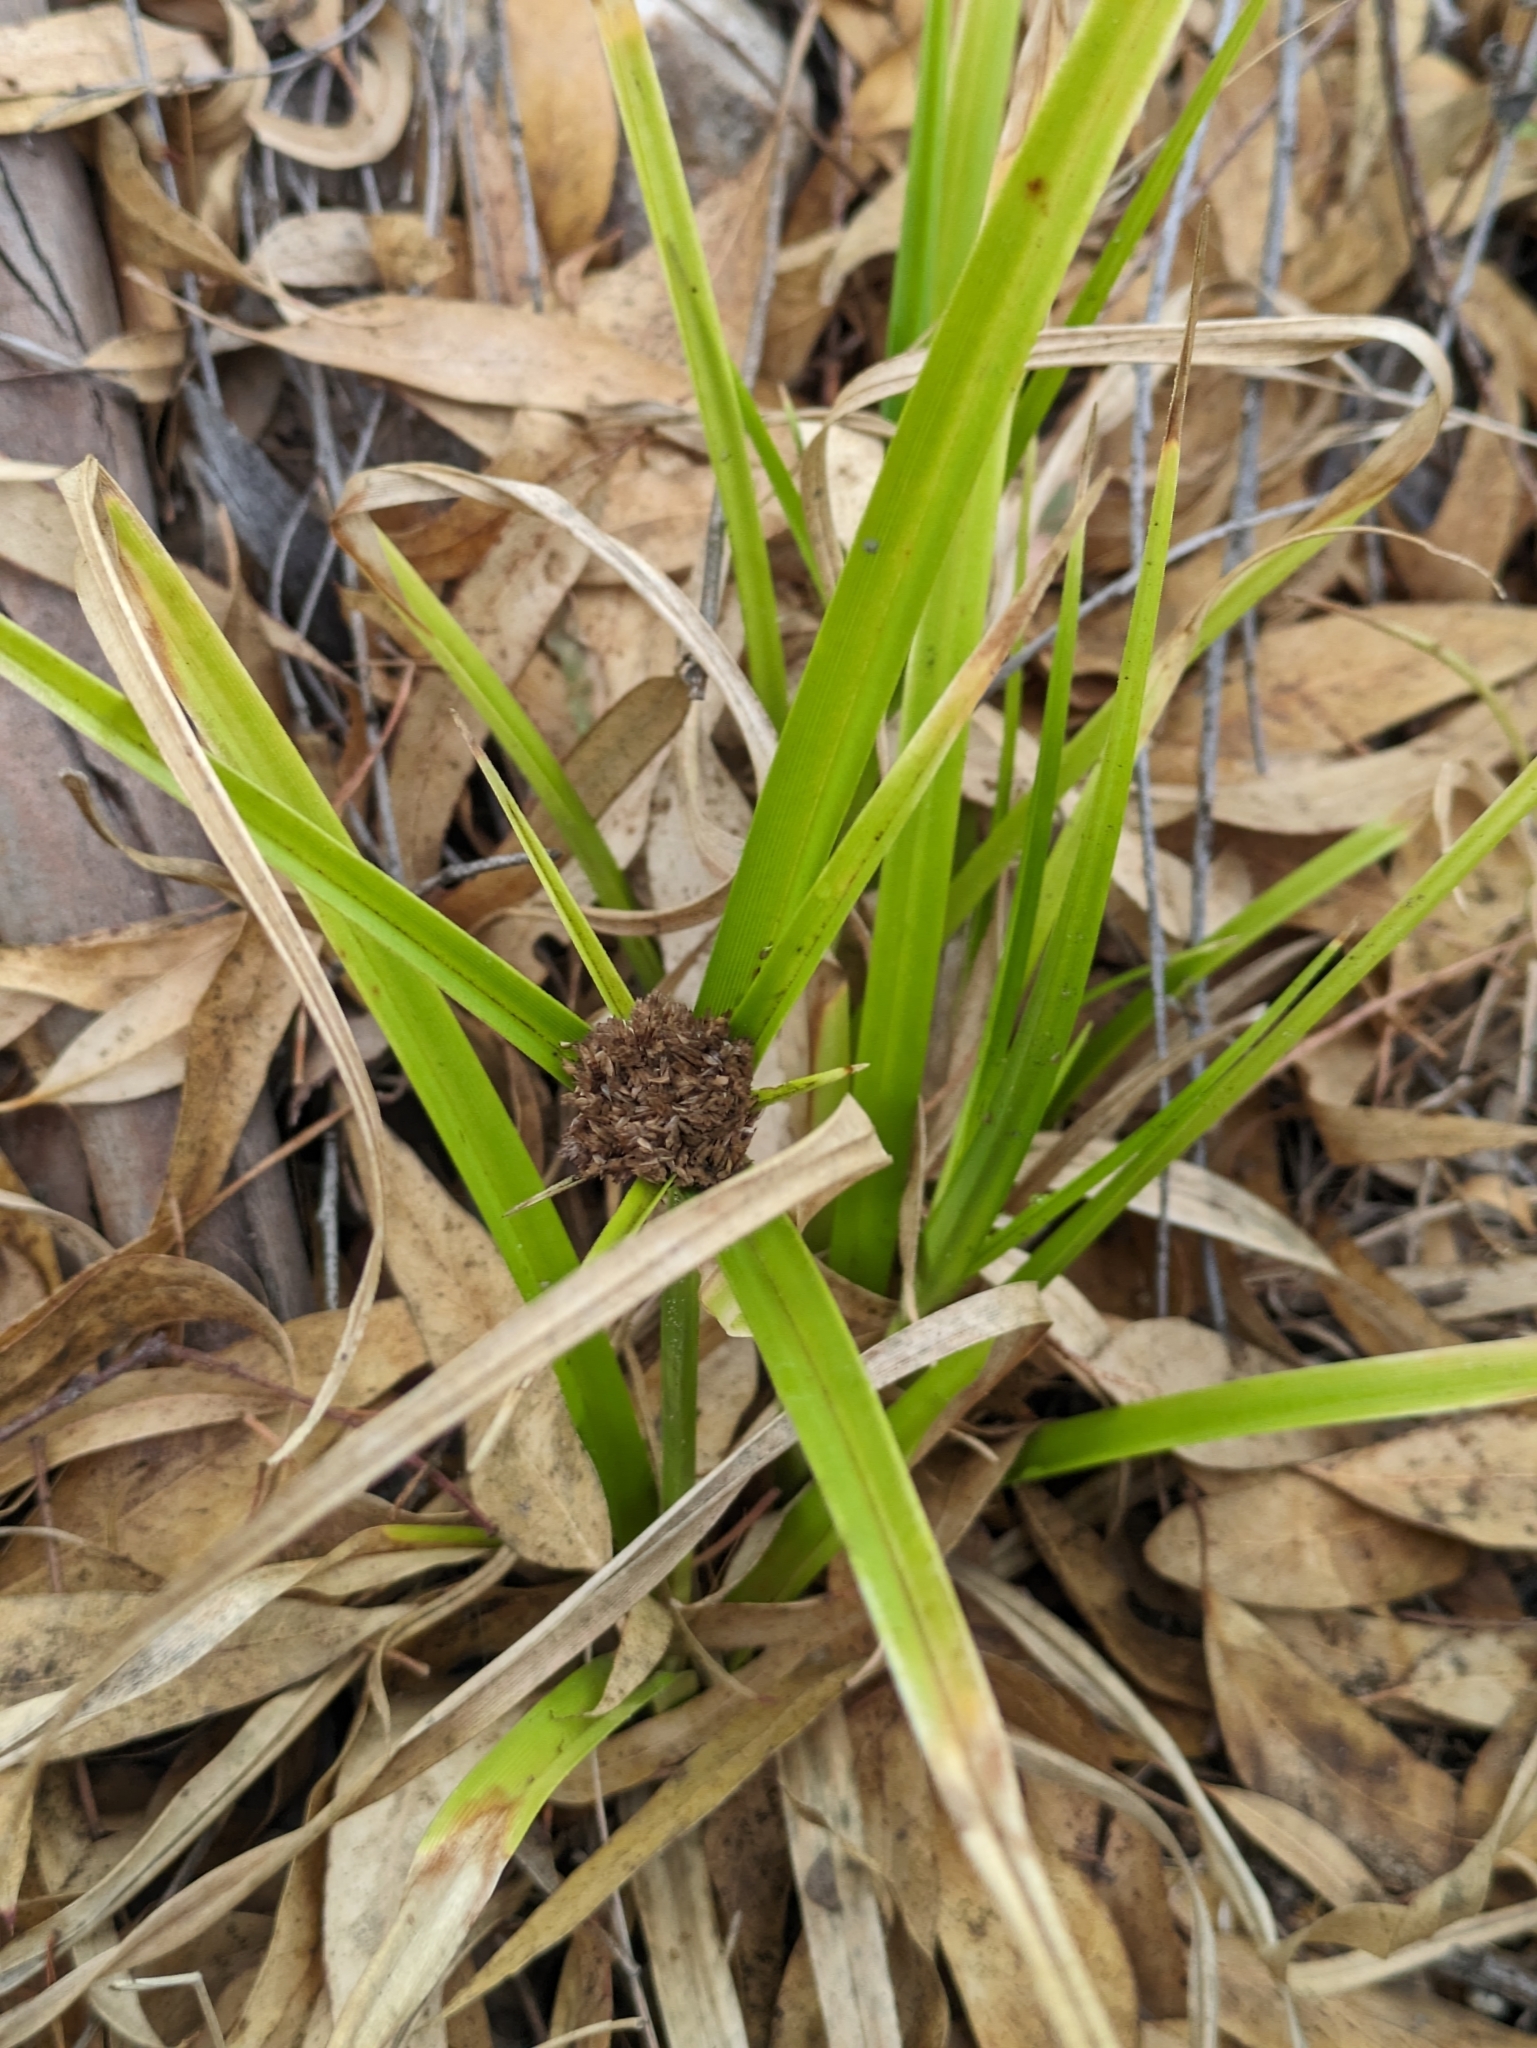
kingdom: Plantae
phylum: Tracheophyta
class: Liliopsida
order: Poales
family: Cyperaceae
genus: Cyperus
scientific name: Cyperus eragrostis
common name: Tall flatsedge
